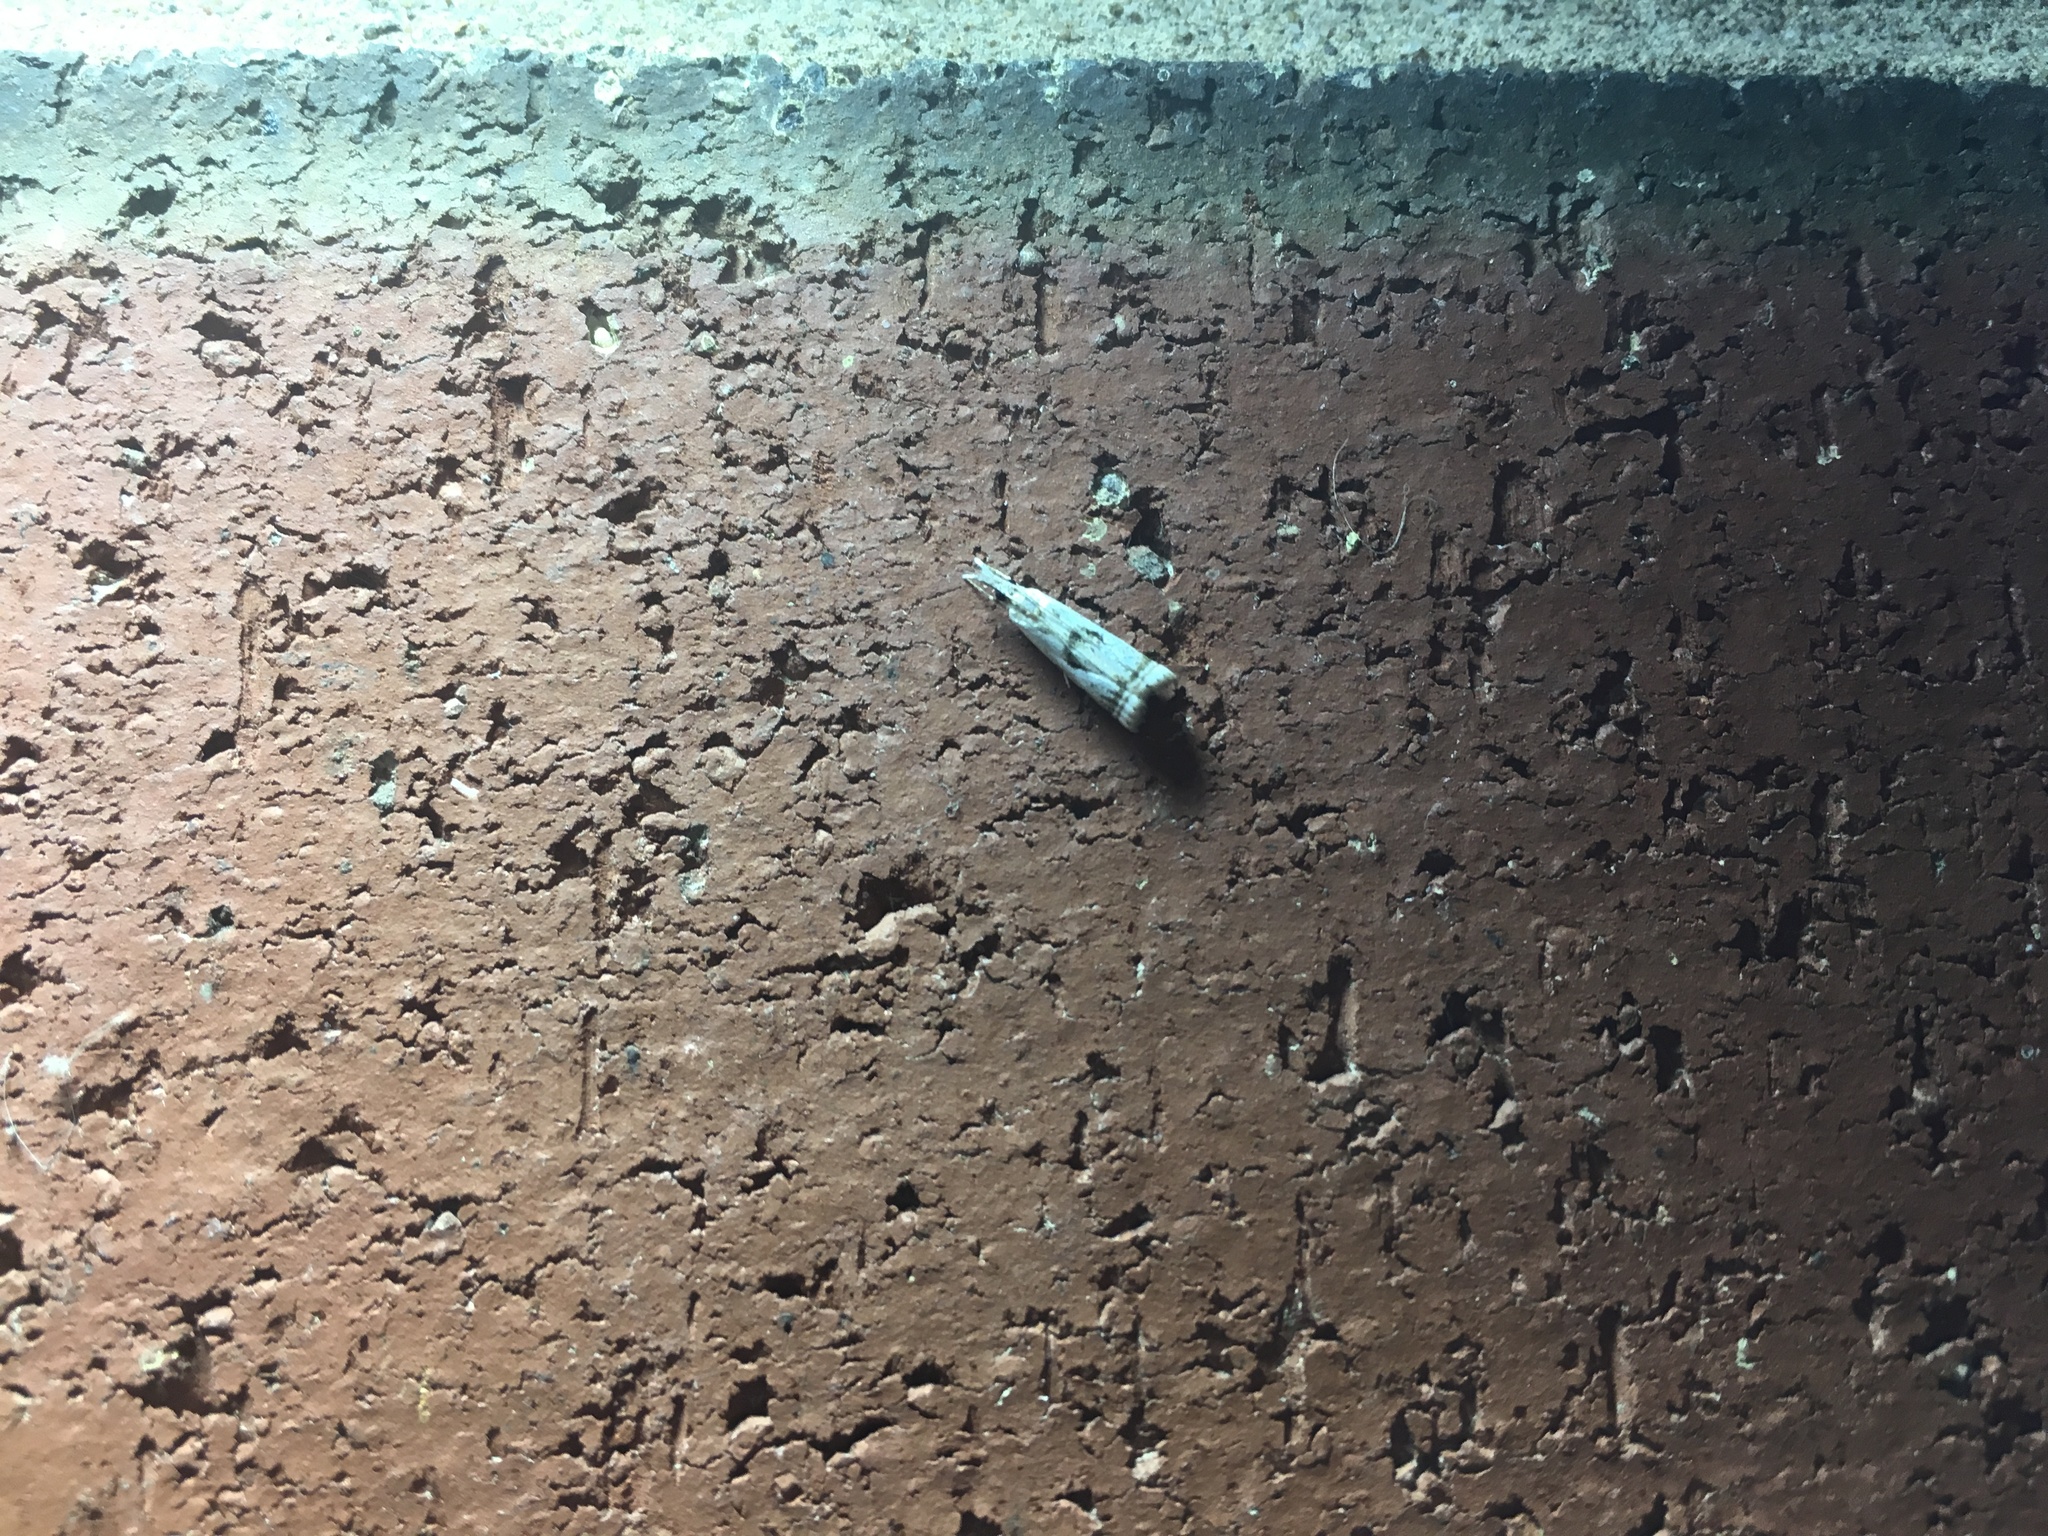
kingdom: Animalia
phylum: Arthropoda
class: Insecta
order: Lepidoptera
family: Crambidae
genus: Microcrambus
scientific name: Microcrambus elegans
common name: Elegant grass-veneer
